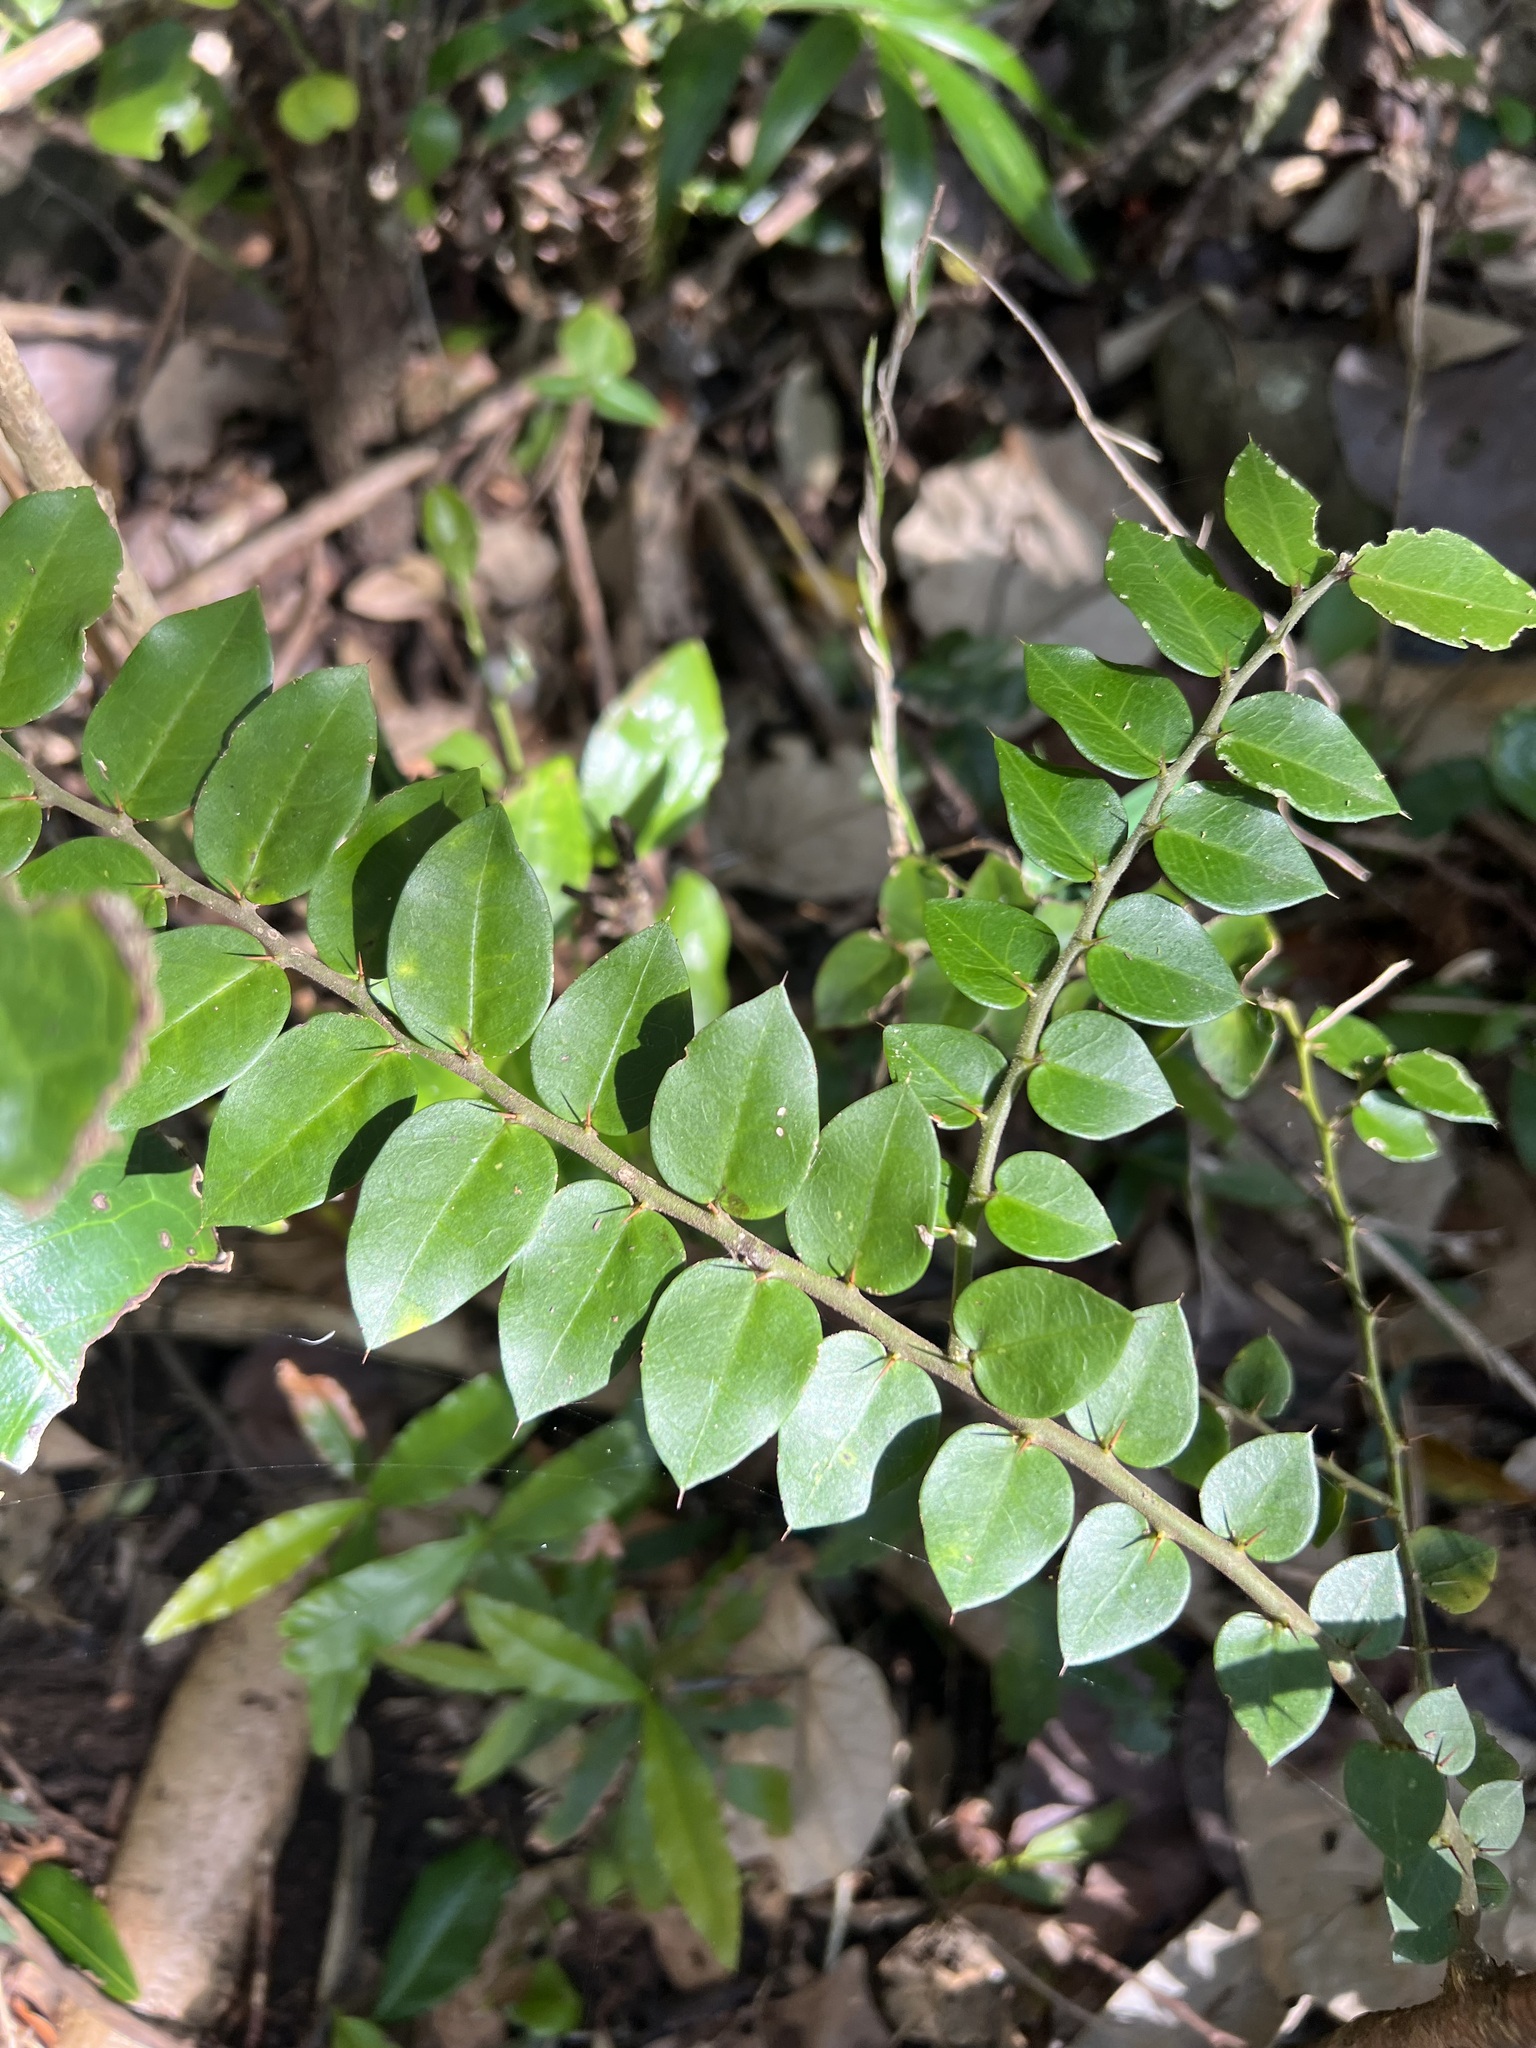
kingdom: Plantae
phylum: Tracheophyta
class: Magnoliopsida
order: Brassicales
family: Capparaceae
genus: Capparis
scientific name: Capparis arborea
